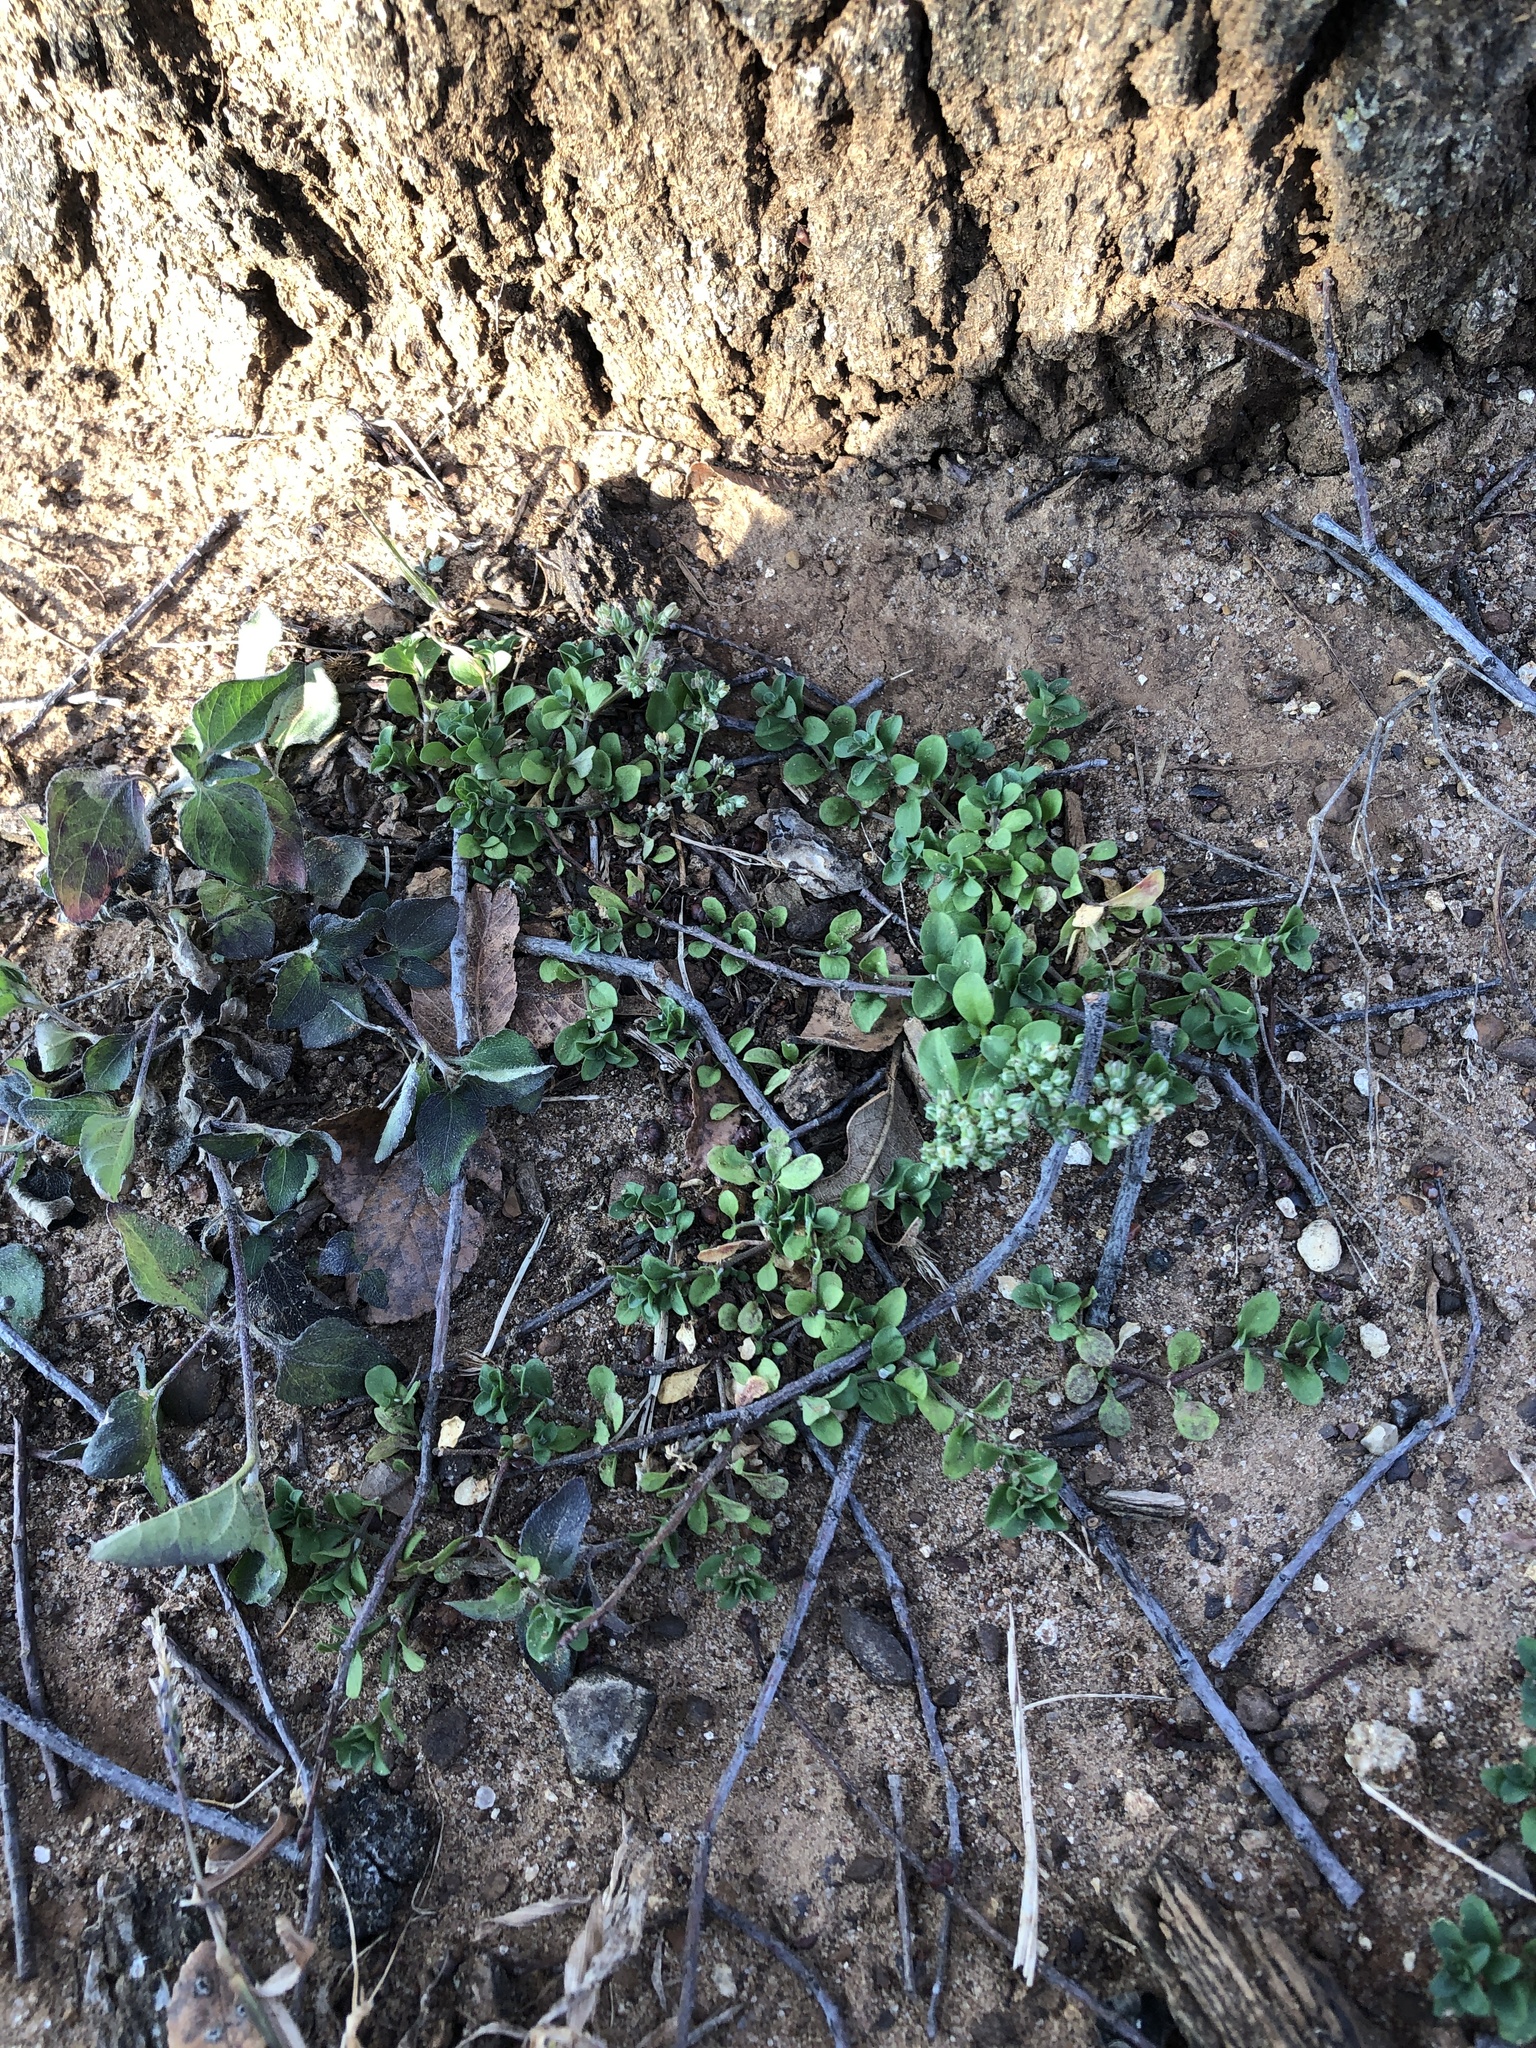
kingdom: Plantae
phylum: Tracheophyta
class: Magnoliopsida
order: Caryophyllales
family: Caryophyllaceae
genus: Polycarpon
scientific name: Polycarpon tetraphyllum
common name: Four-leaved all-seed
